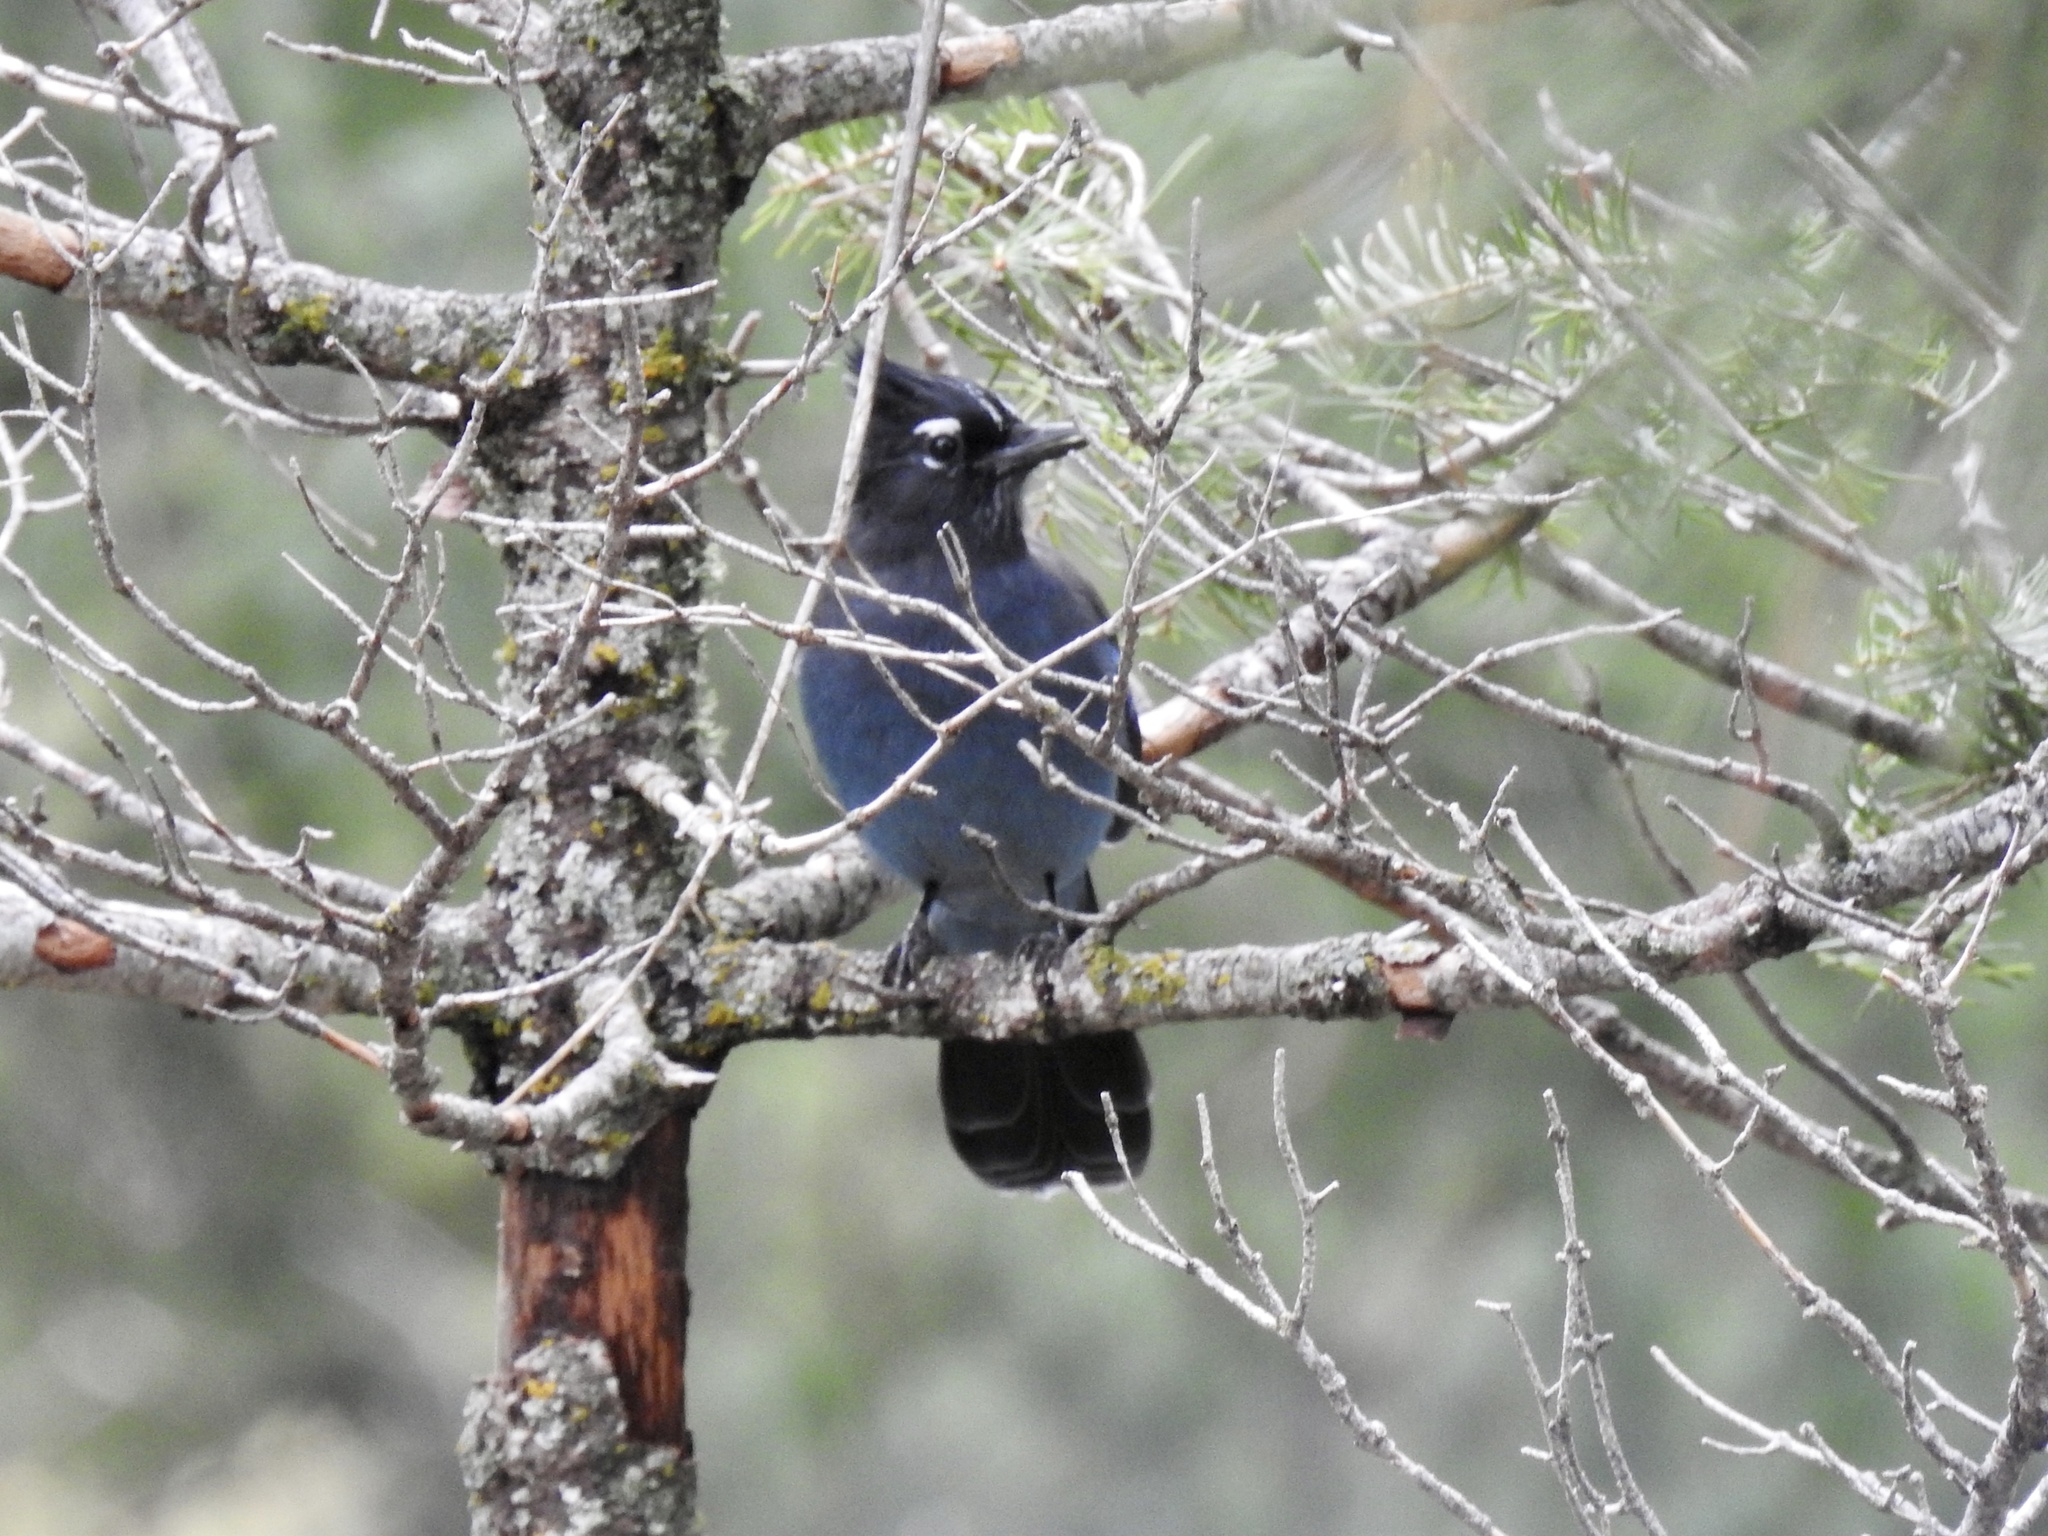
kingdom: Animalia
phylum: Chordata
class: Aves
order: Passeriformes
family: Corvidae
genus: Cyanocitta
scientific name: Cyanocitta stelleri
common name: Steller's jay
